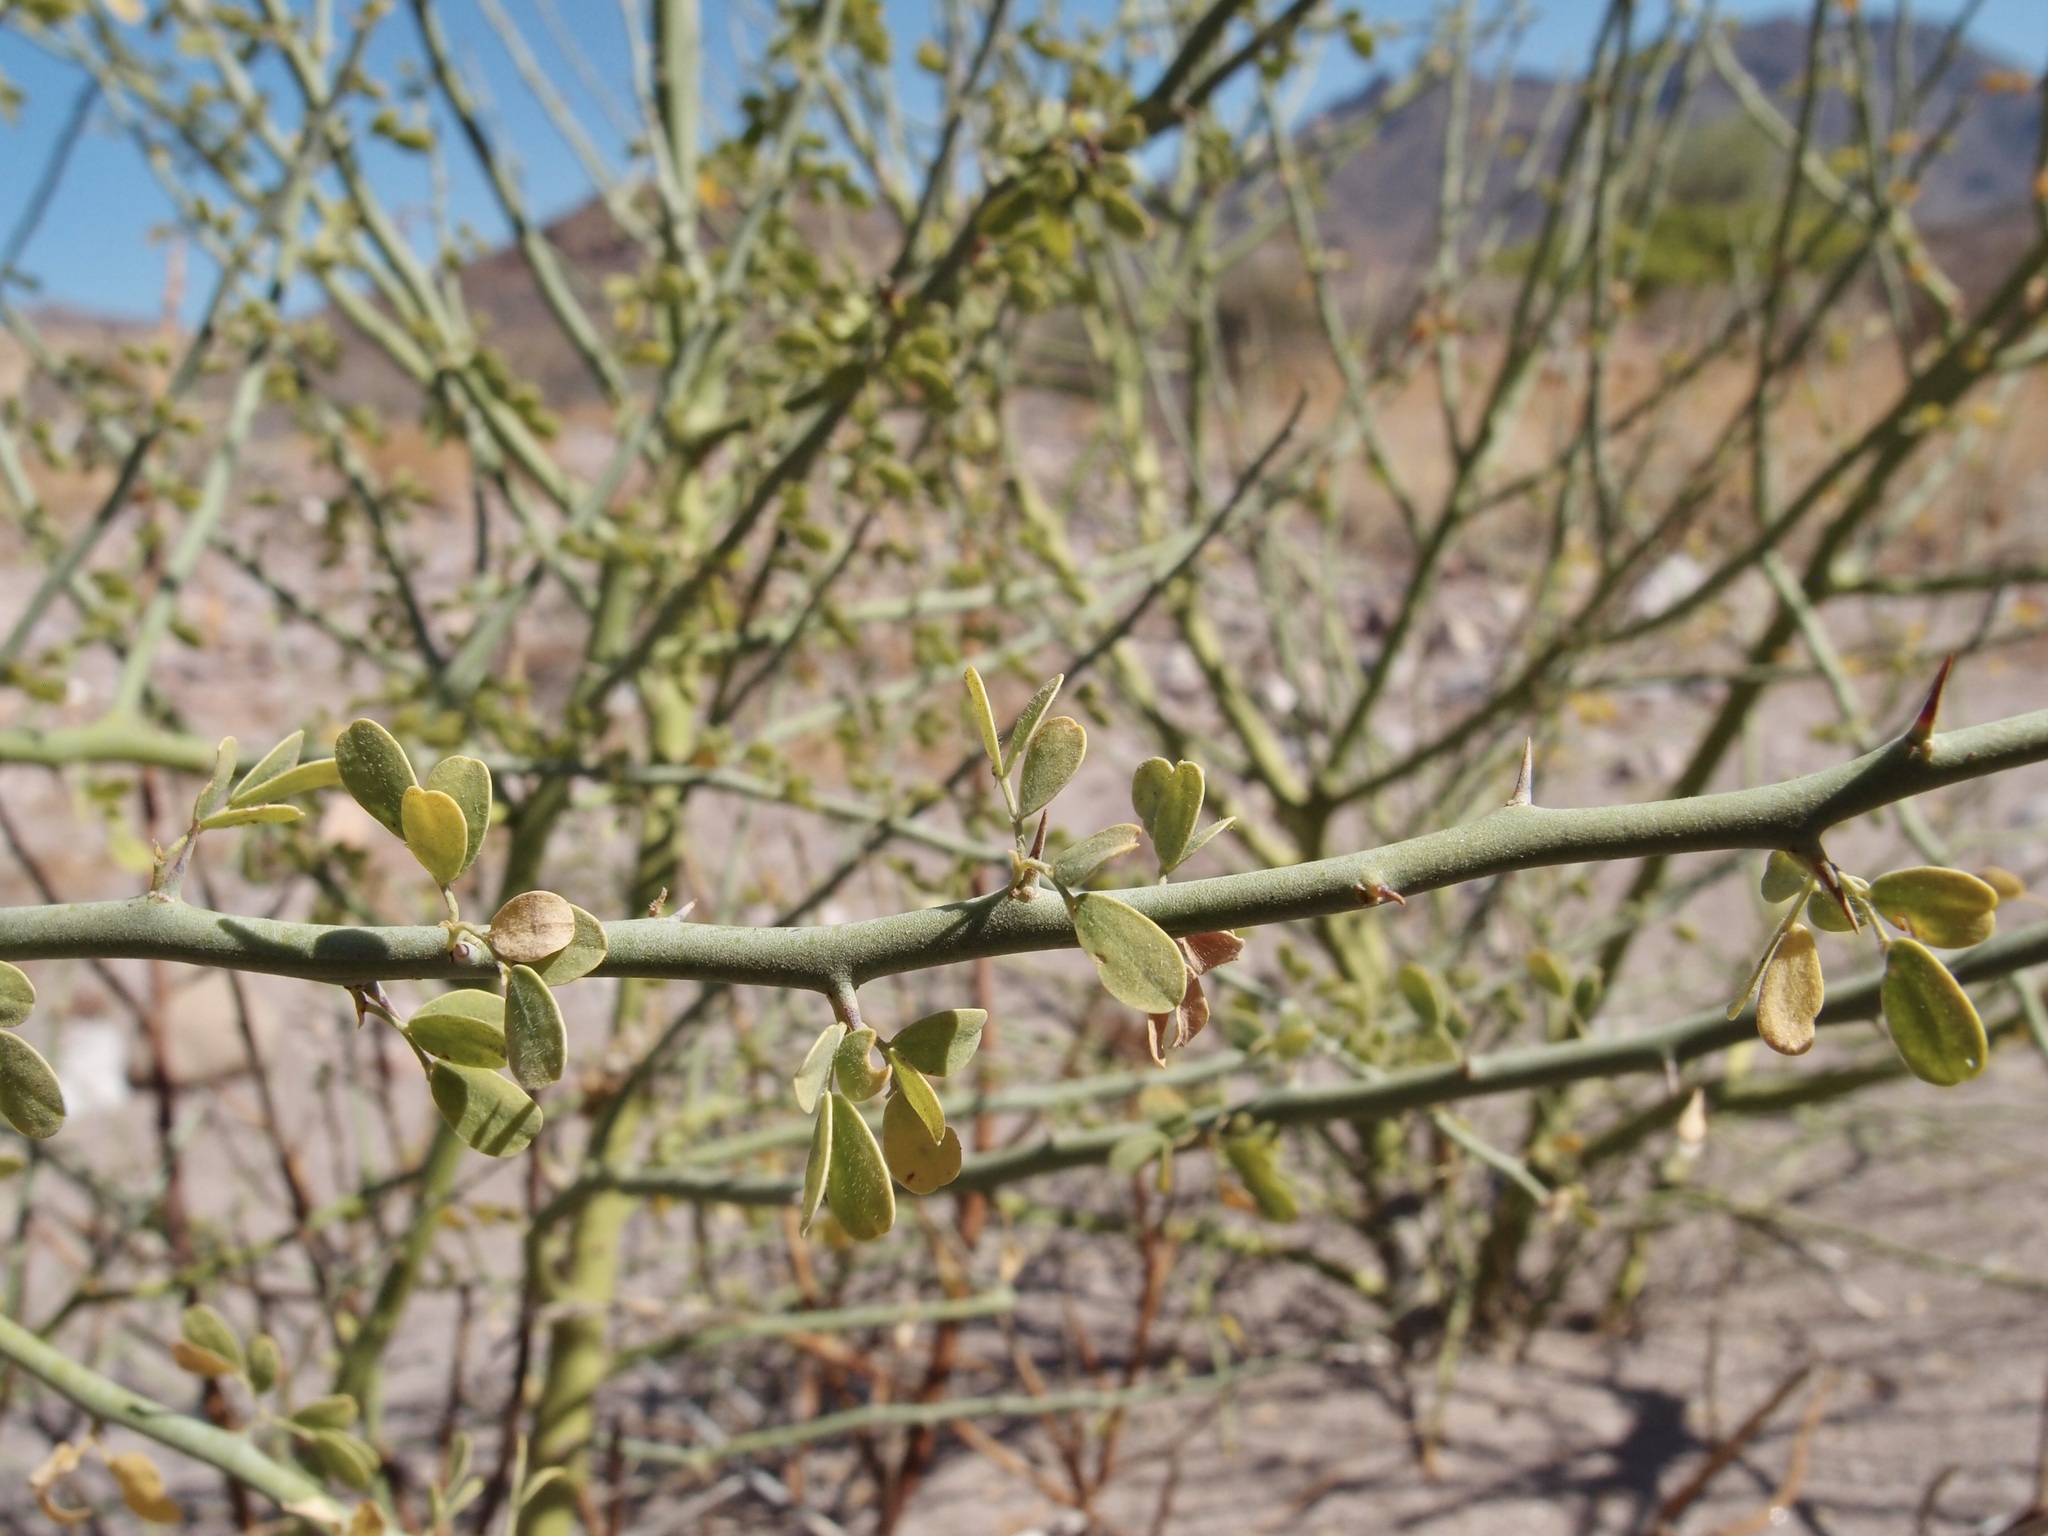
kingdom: Plantae
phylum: Tracheophyta
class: Magnoliopsida
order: Fabales
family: Fabaceae
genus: Parkinsonia
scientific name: Parkinsonia florida
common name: Blue paloverde
